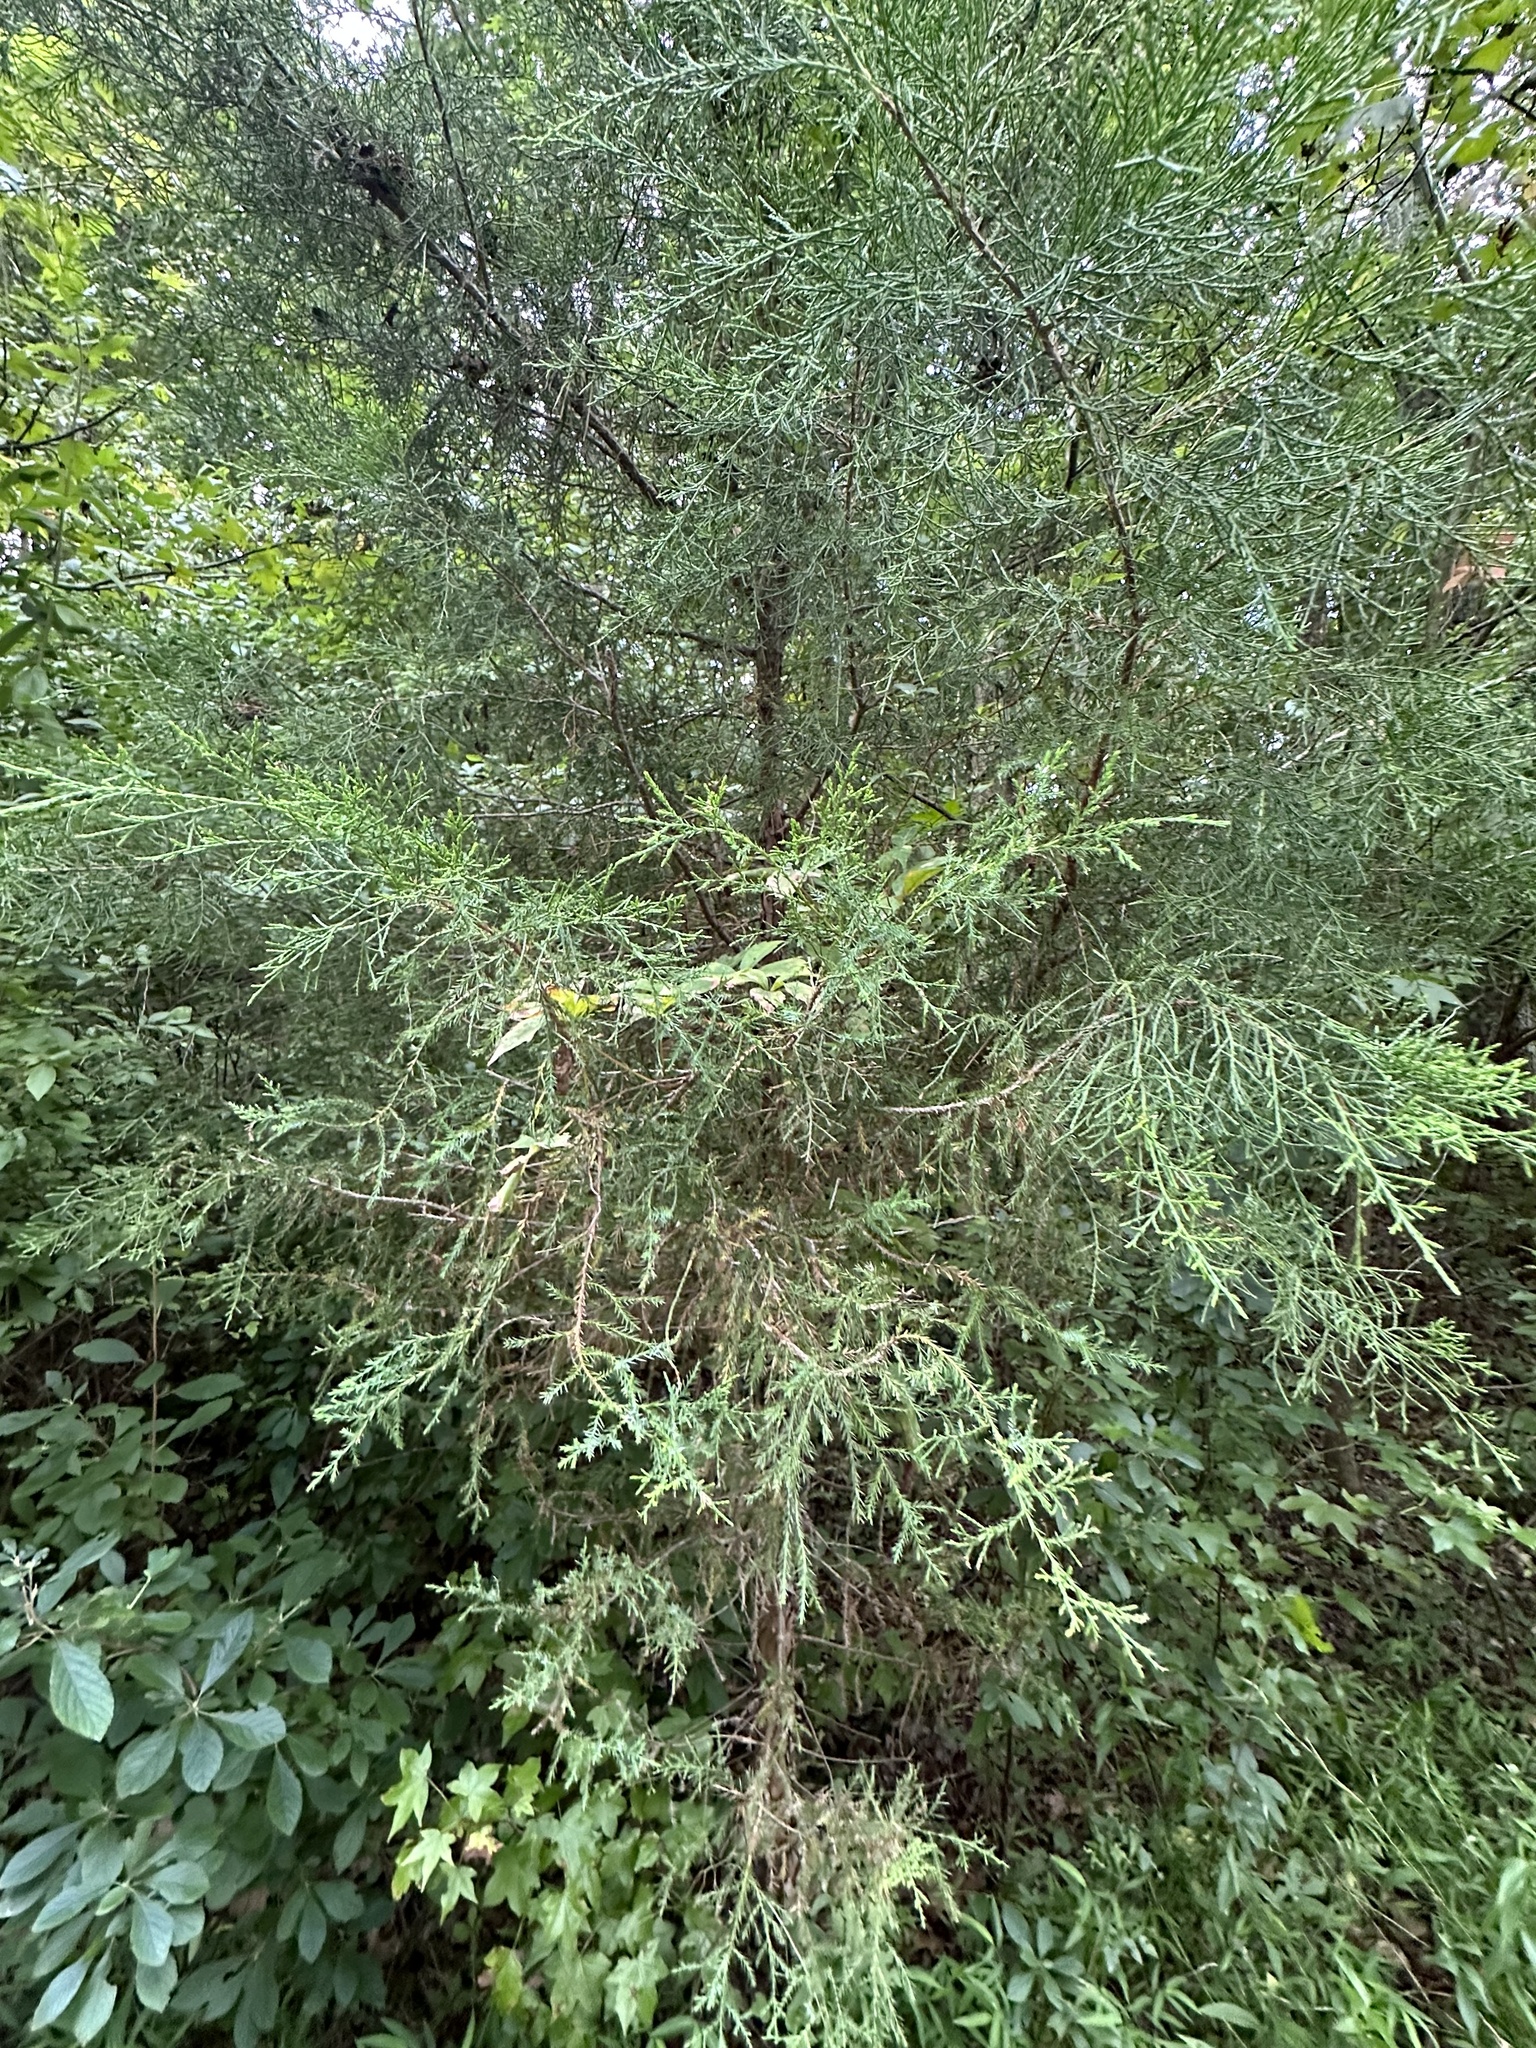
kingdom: Plantae
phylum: Tracheophyta
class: Pinopsida
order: Pinales
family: Cupressaceae
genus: Juniperus
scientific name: Juniperus virginiana
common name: Red juniper
